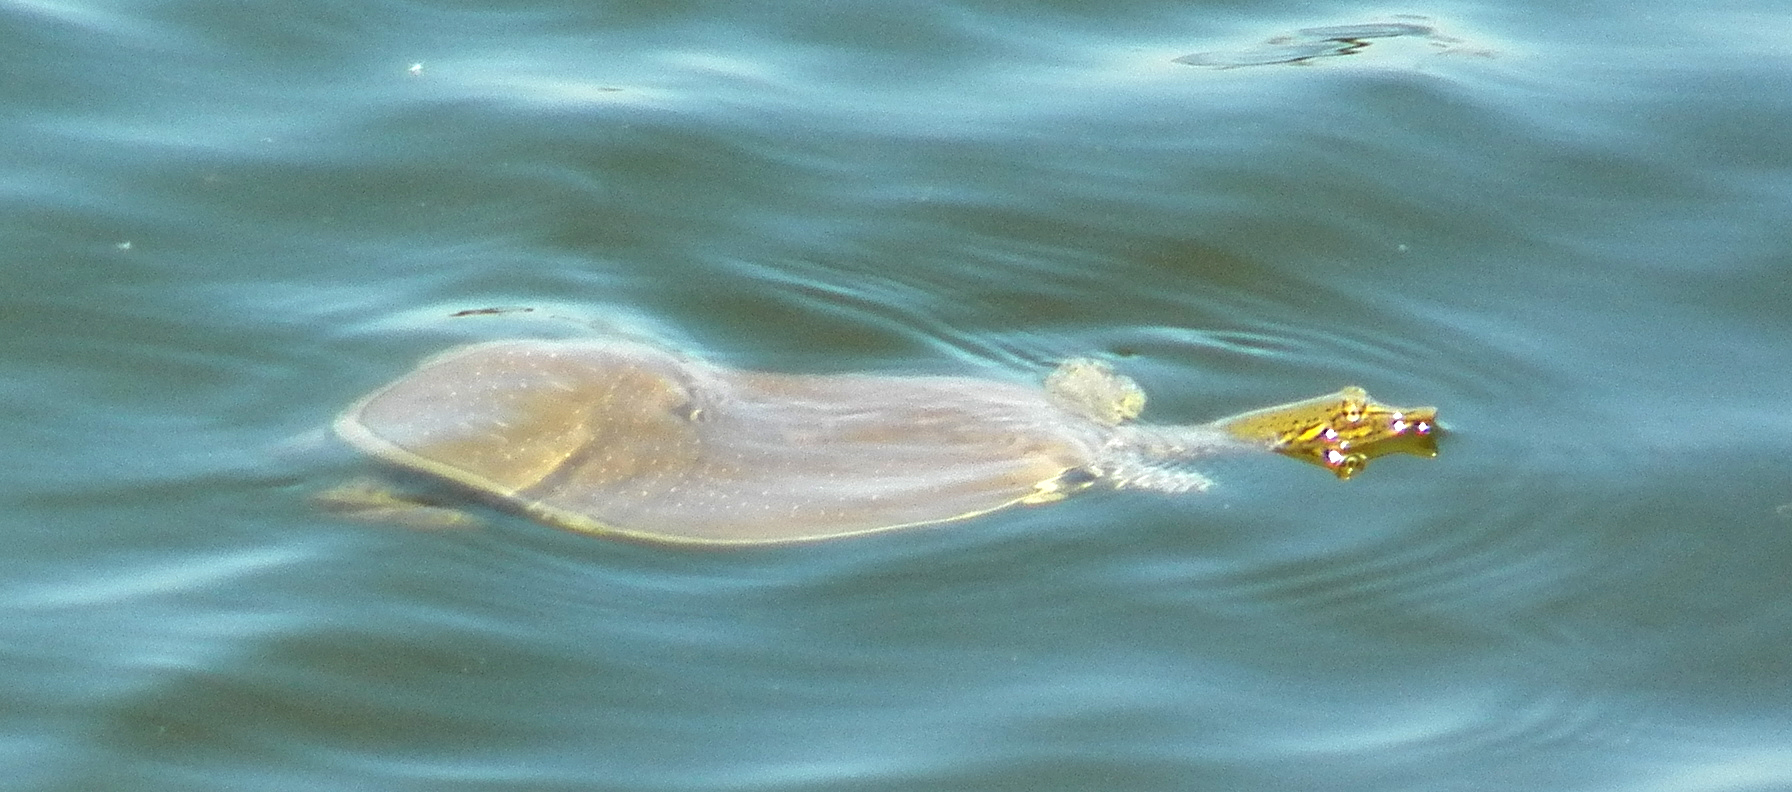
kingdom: Animalia
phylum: Chordata
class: Testudines
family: Trionychidae
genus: Apalone
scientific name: Apalone spinifera
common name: Spiny softshell turtle
